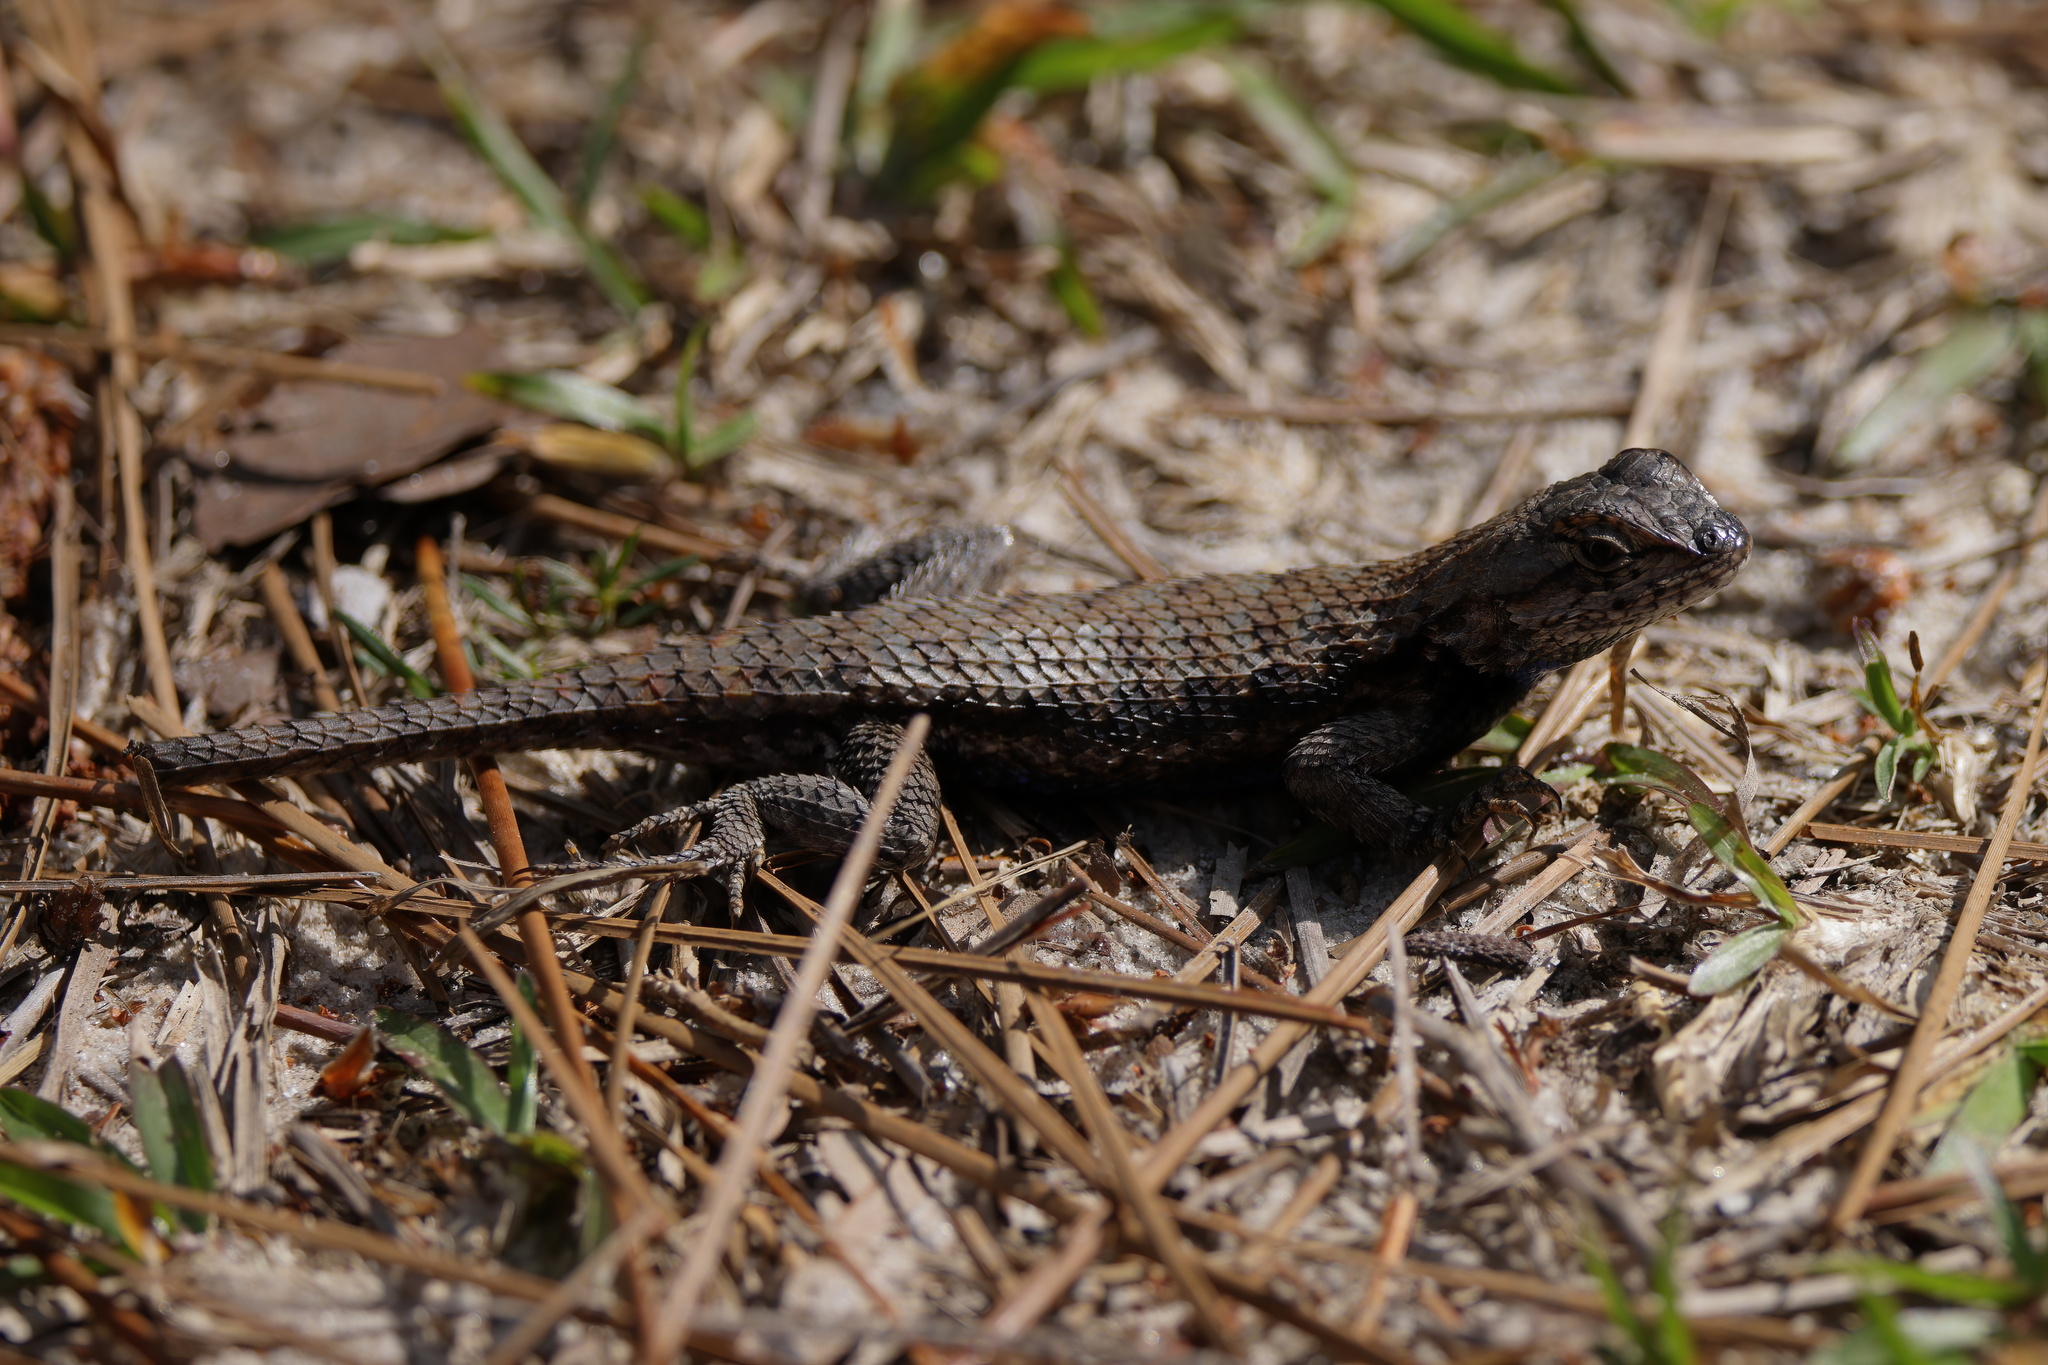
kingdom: Animalia
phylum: Chordata
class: Squamata
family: Phrynosomatidae
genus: Sceloporus
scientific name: Sceloporus undulatus
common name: Eastern fence lizard
